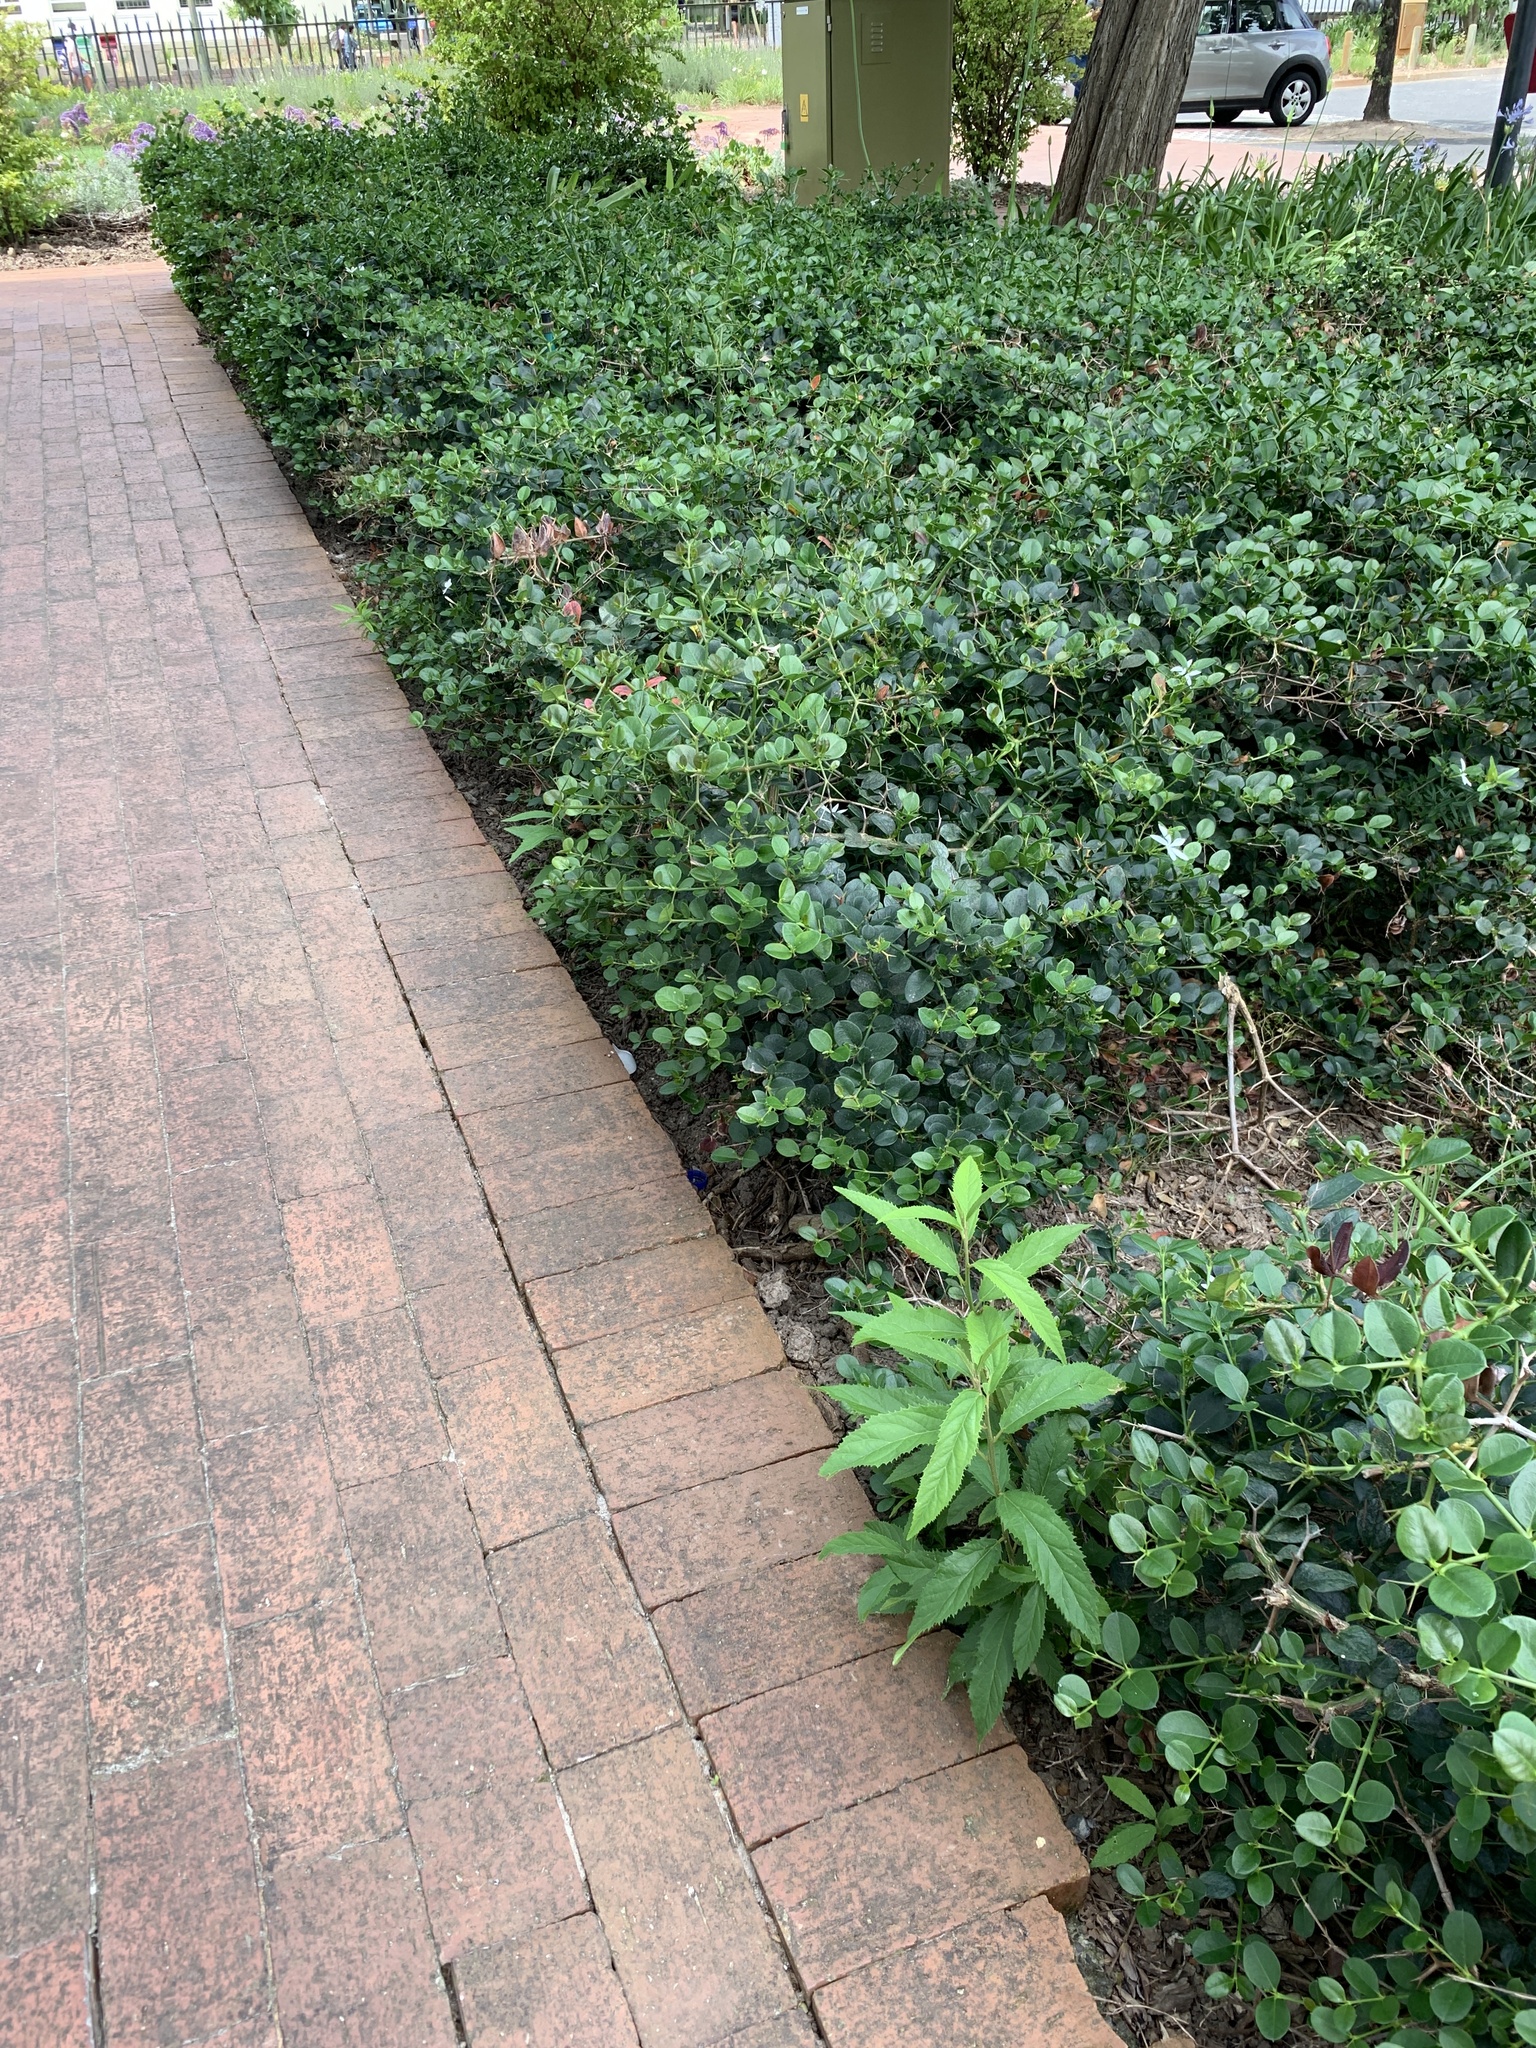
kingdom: Plantae
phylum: Tracheophyta
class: Magnoliopsida
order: Malpighiales
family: Achariaceae
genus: Kiggelaria
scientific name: Kiggelaria africana
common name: Wild peach
